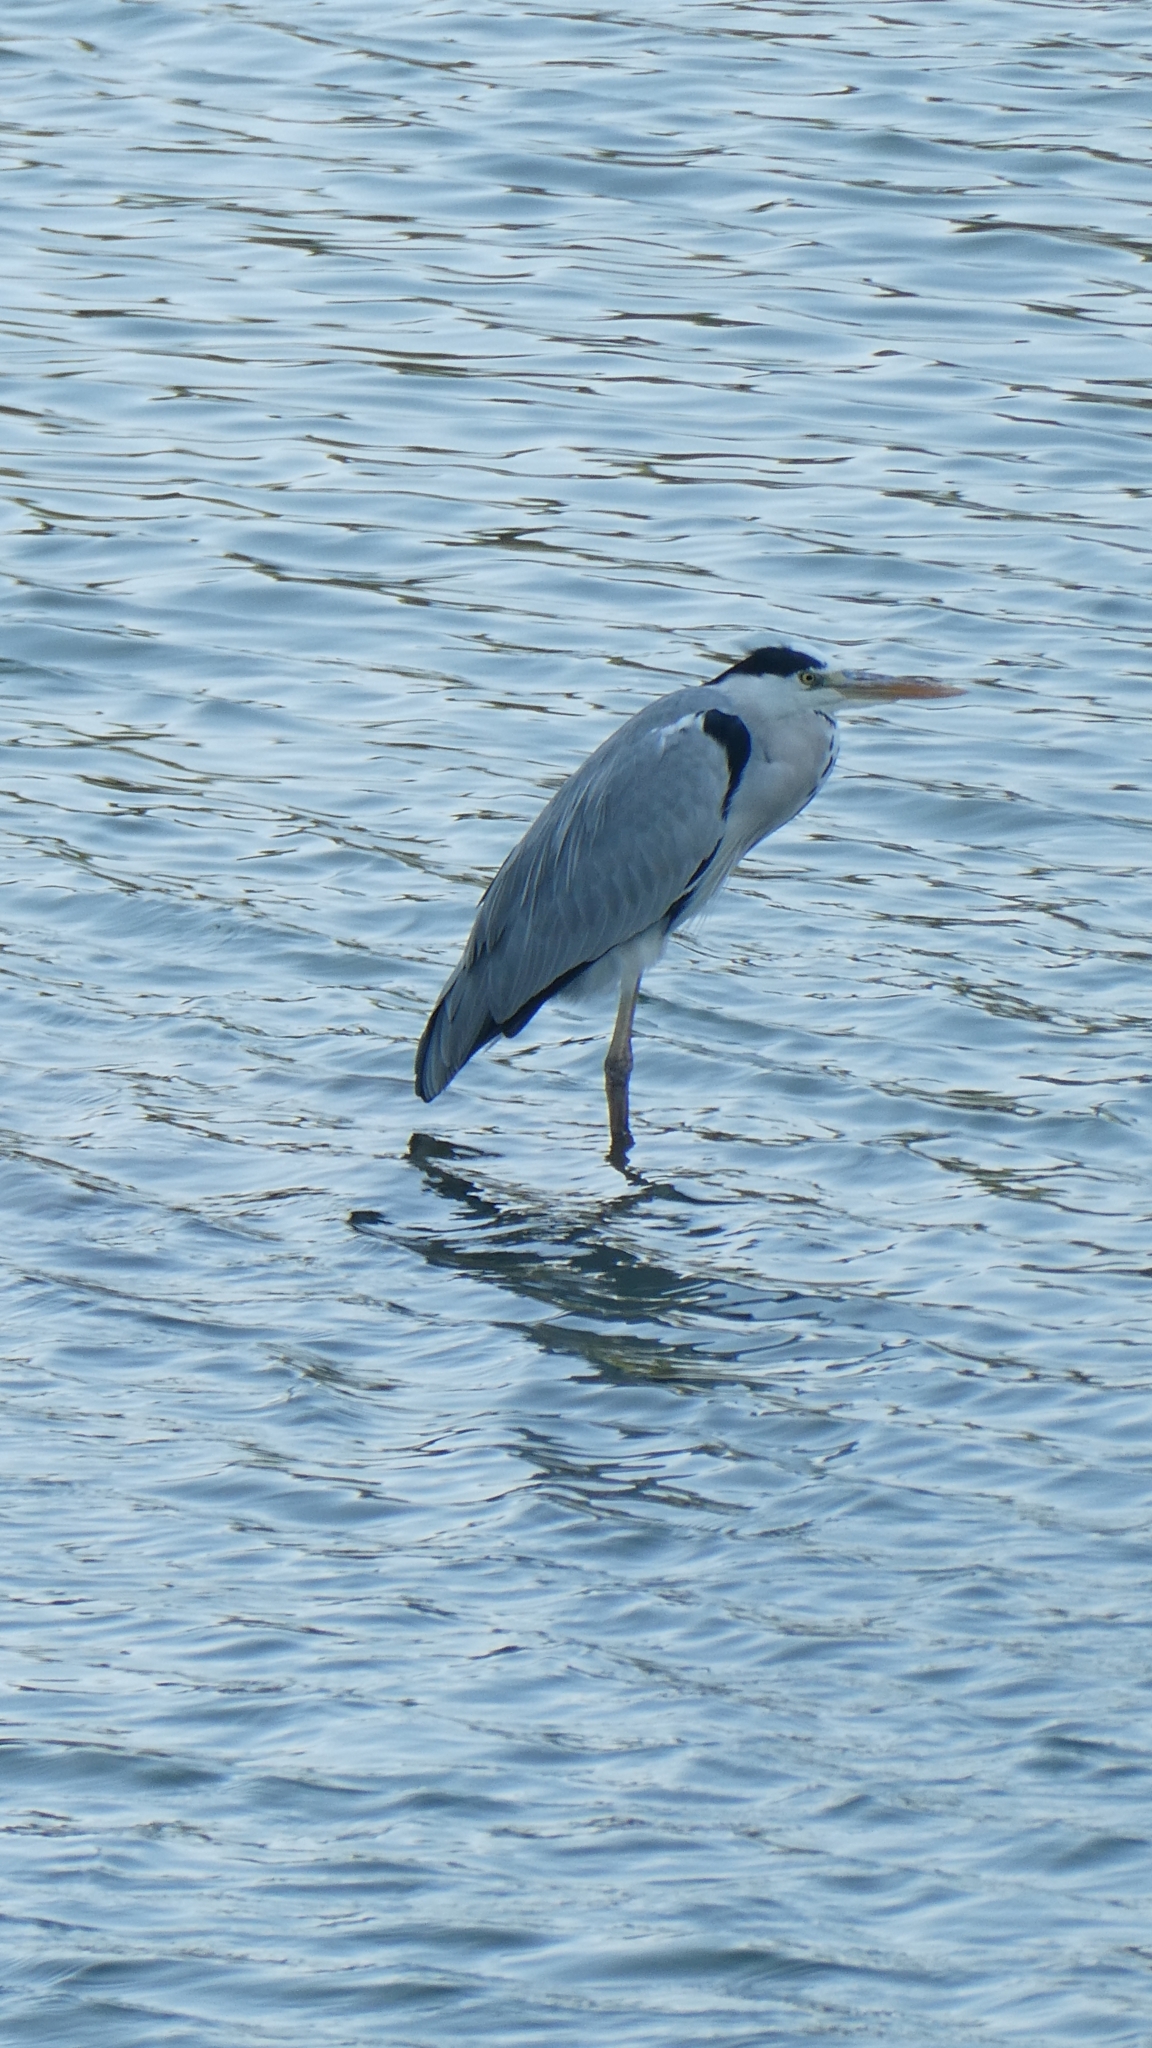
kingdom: Animalia
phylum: Chordata
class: Aves
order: Pelecaniformes
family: Ardeidae
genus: Ardea
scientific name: Ardea cinerea
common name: Grey heron
